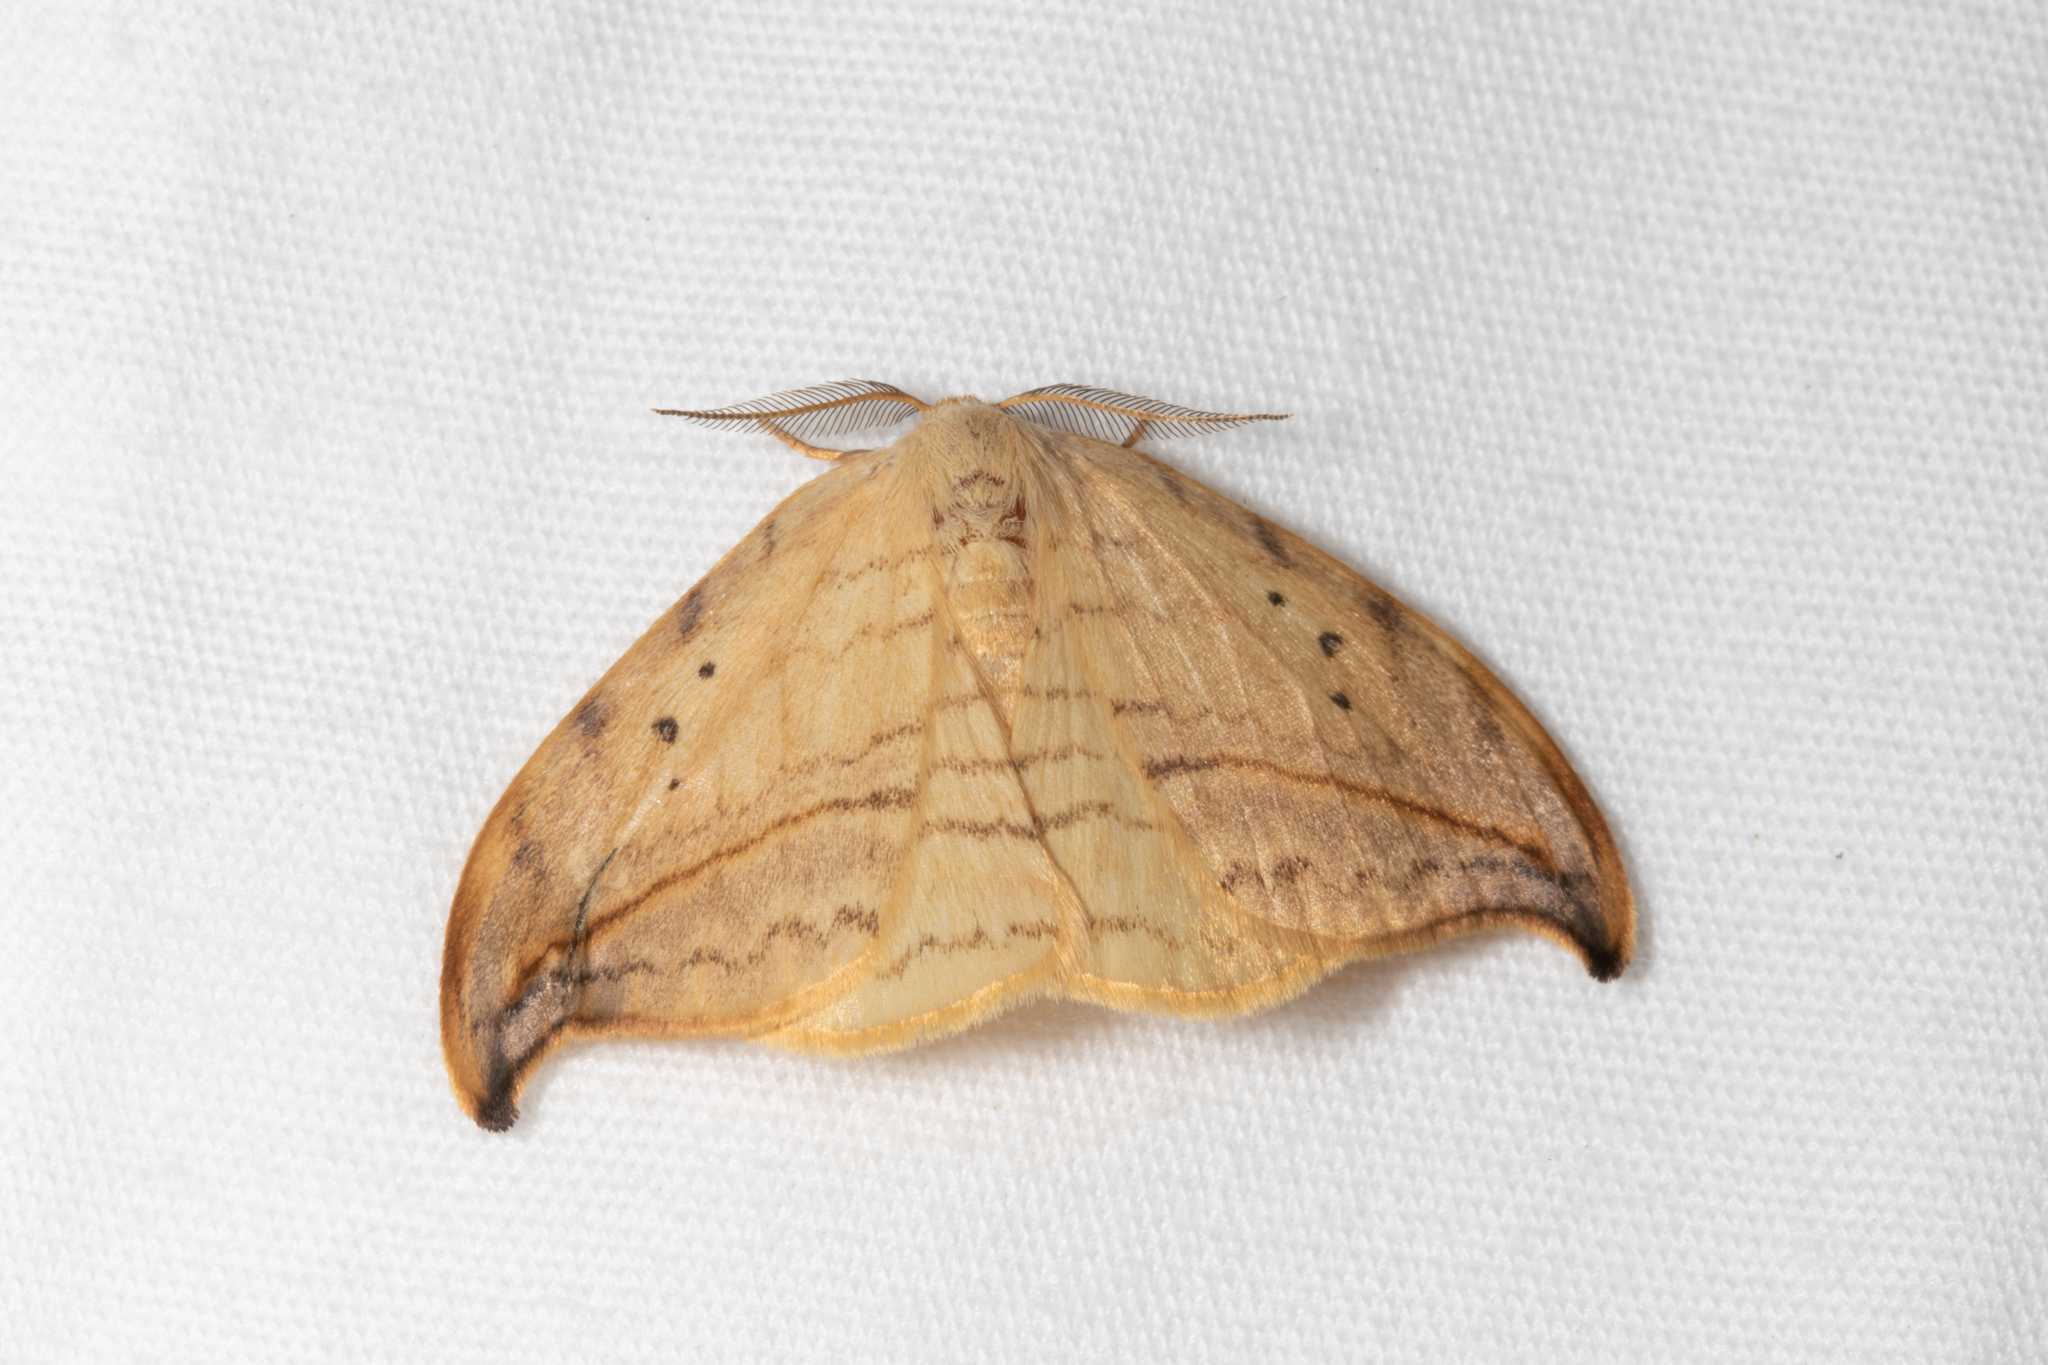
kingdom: Animalia
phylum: Arthropoda
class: Insecta
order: Lepidoptera
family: Drepanidae
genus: Drepana
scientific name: Drepana arcuata
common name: Arched hooktip moth
